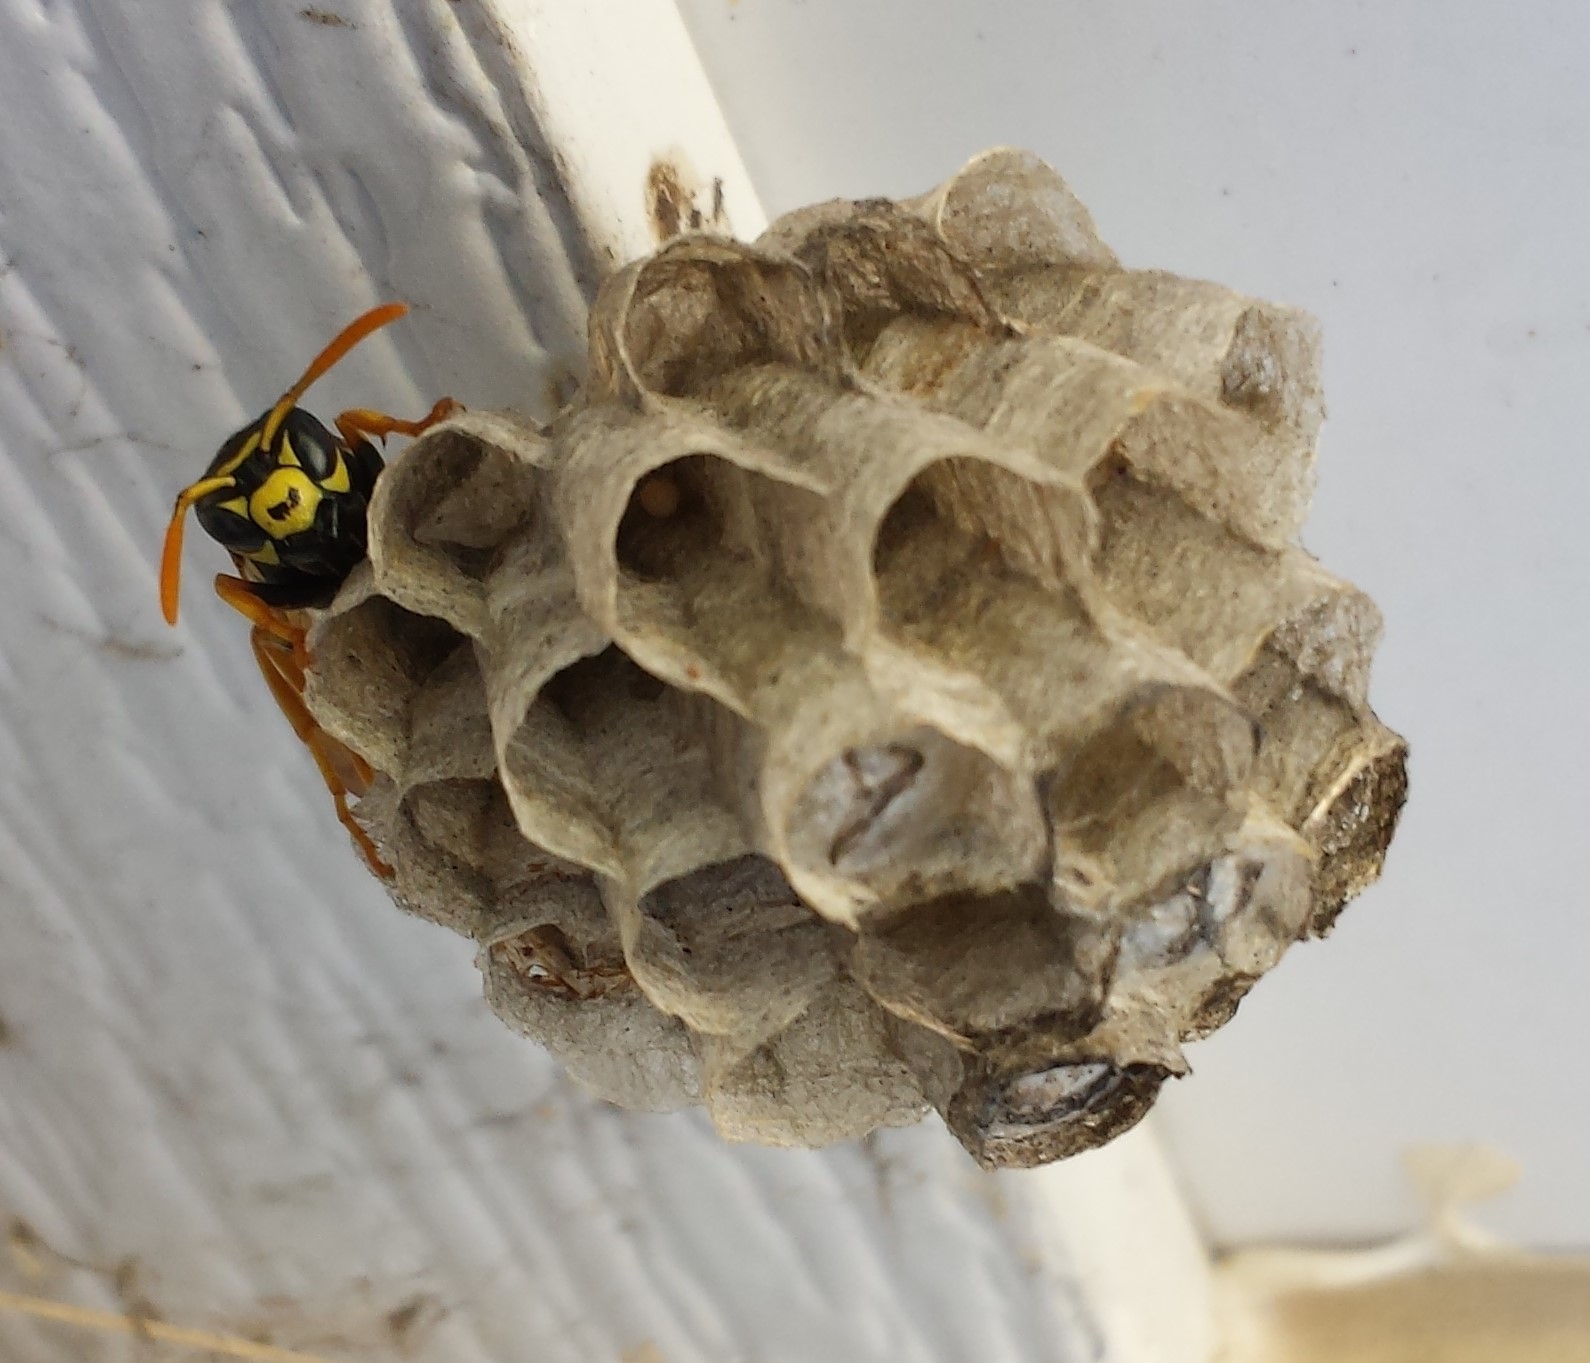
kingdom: Animalia
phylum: Arthropoda
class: Insecta
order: Hymenoptera
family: Eumenidae
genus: Polistes
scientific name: Polistes dominula
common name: Paper wasp
